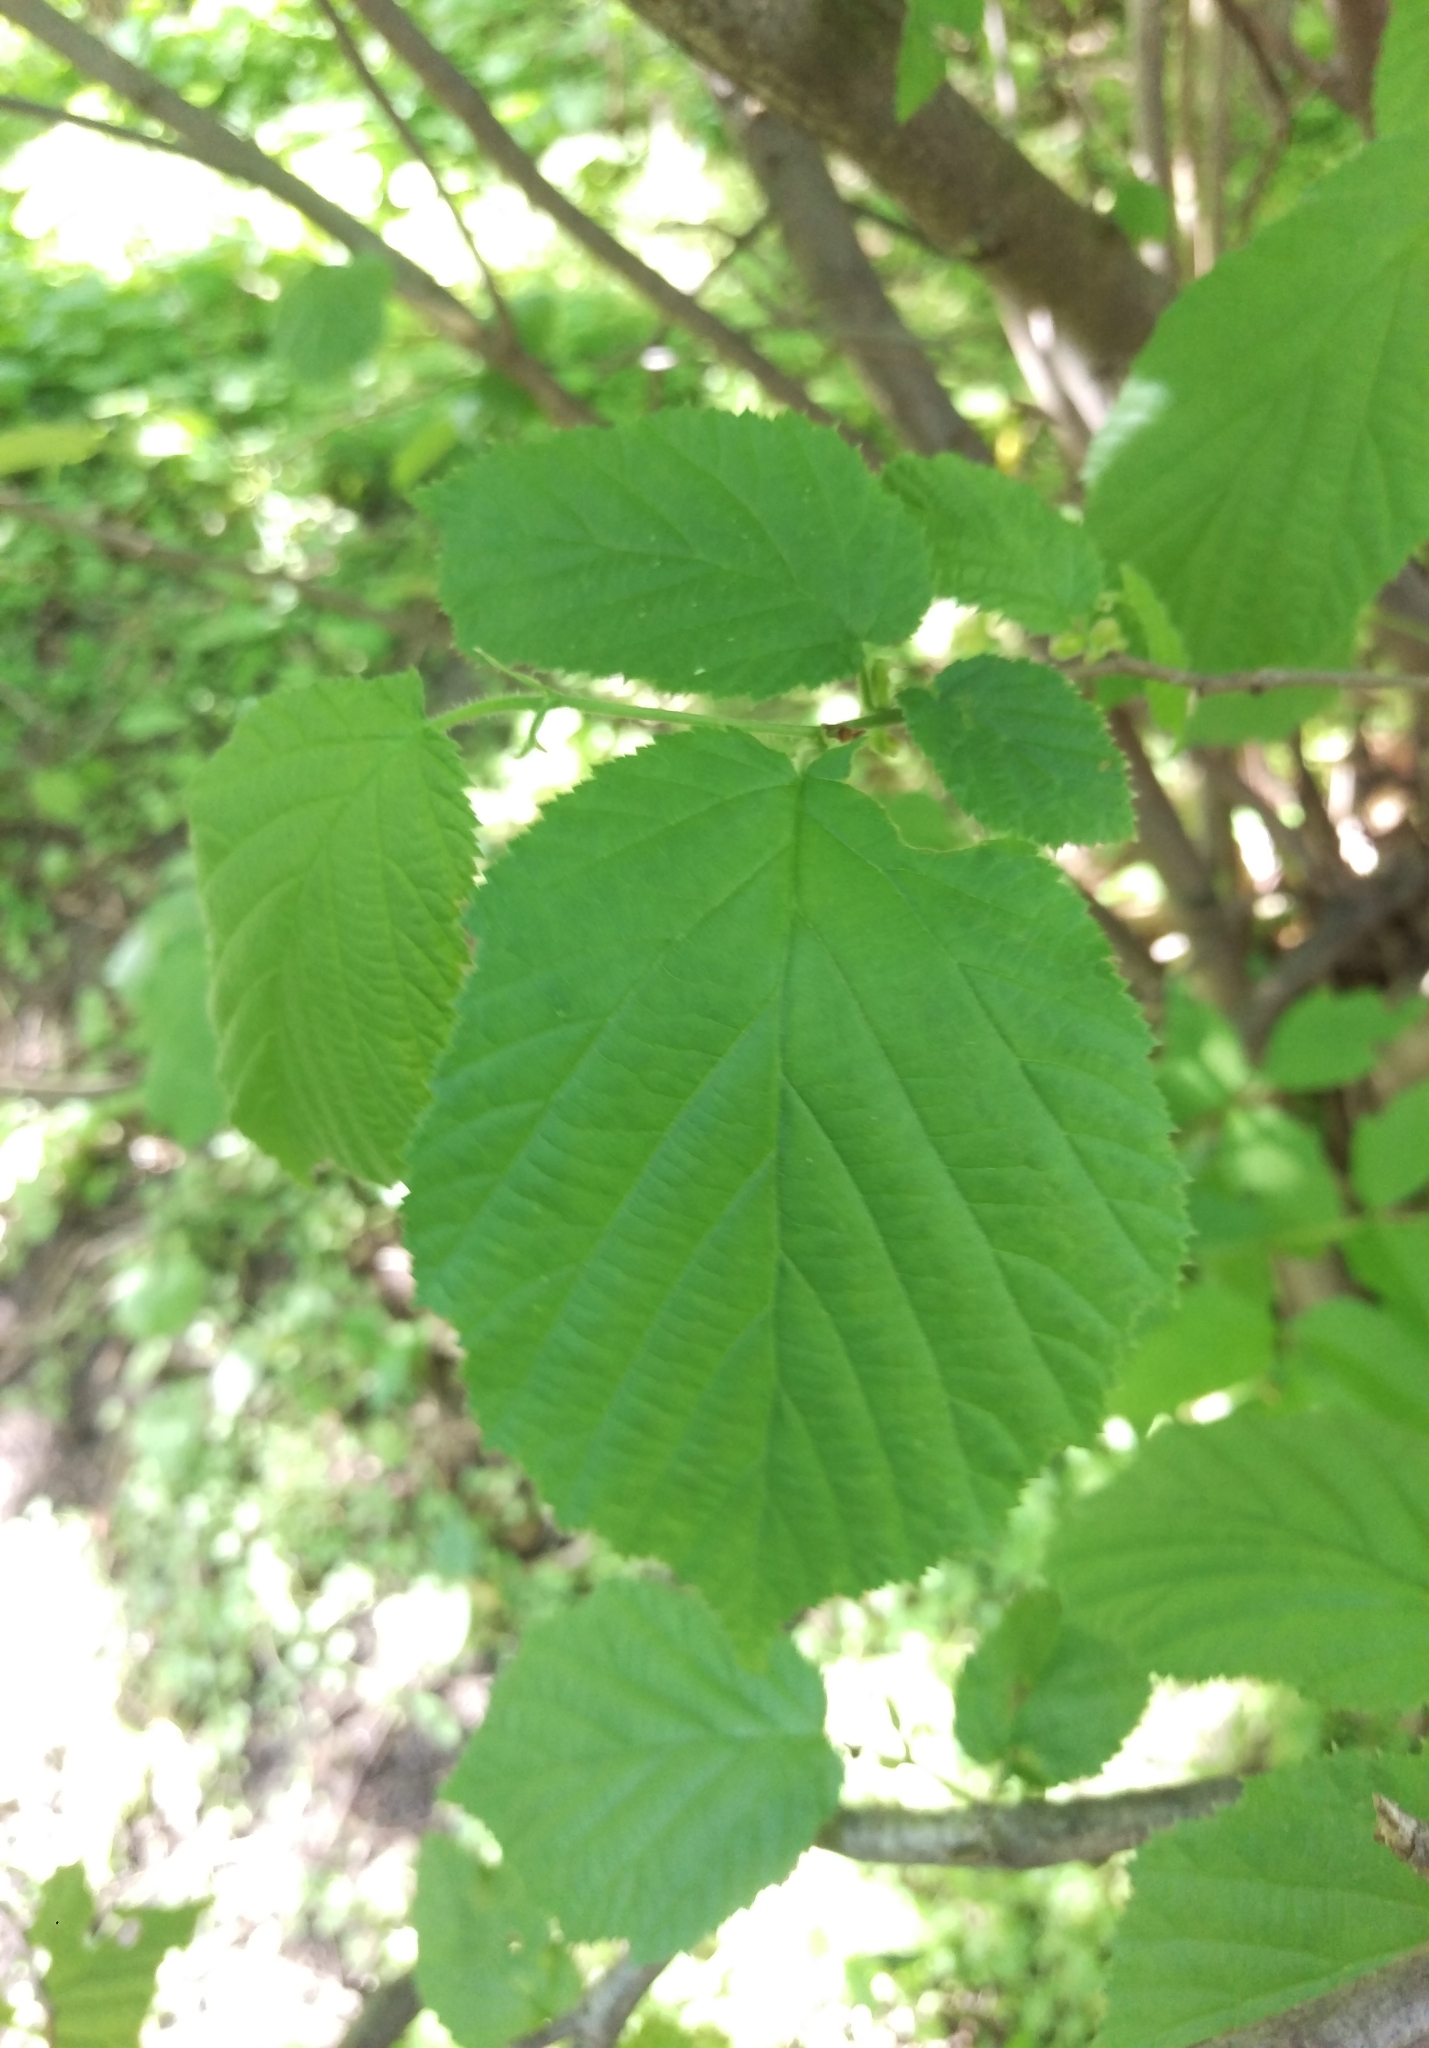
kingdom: Plantae
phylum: Tracheophyta
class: Magnoliopsida
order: Fagales
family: Betulaceae
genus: Corylus
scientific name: Corylus avellana
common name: European hazel
